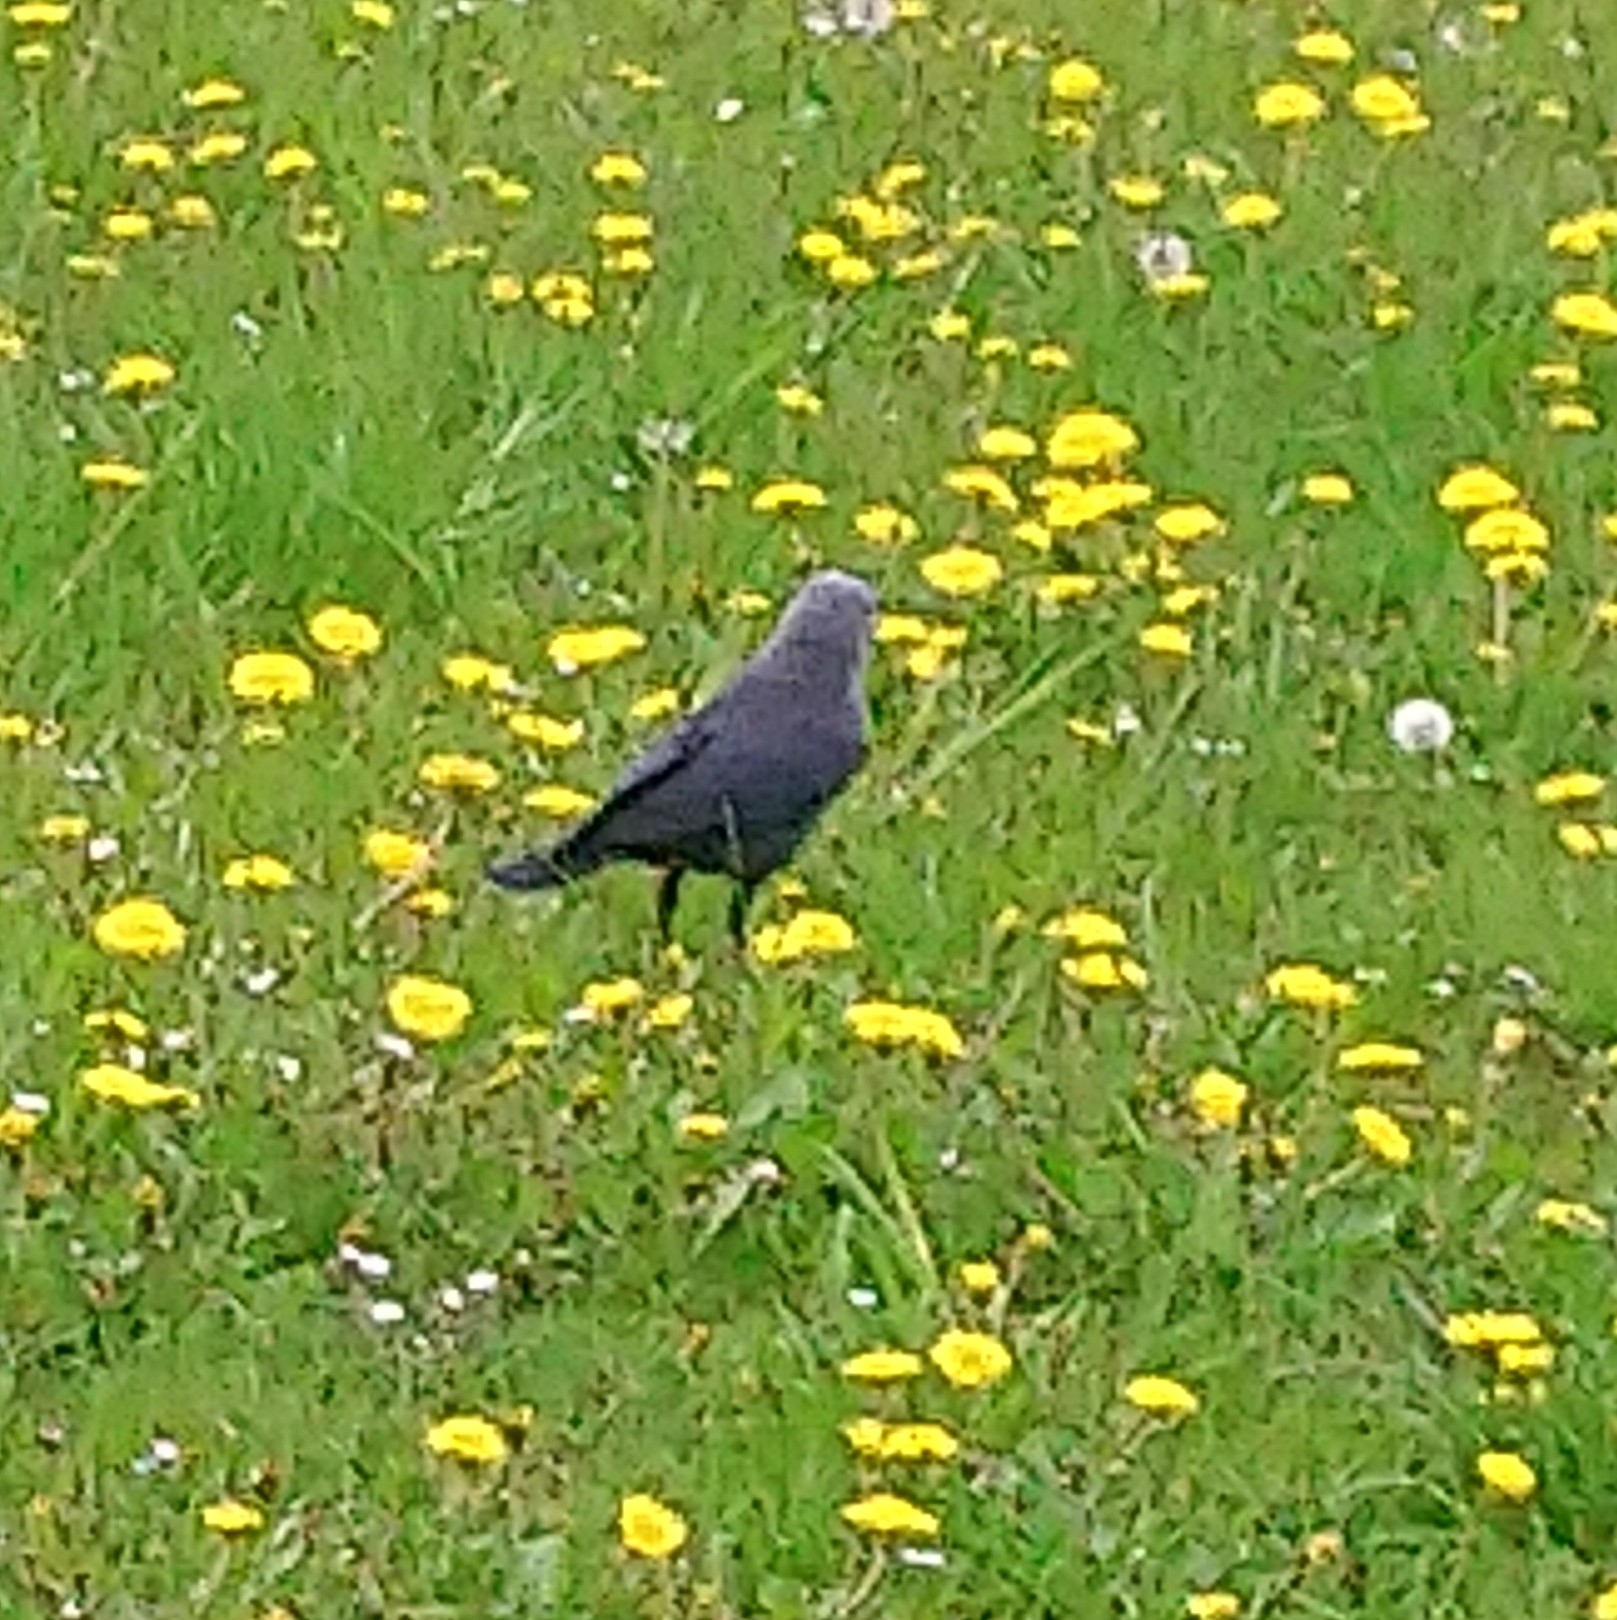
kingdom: Animalia
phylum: Chordata
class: Aves
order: Passeriformes
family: Corvidae
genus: Coloeus
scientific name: Coloeus monedula
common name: Western jackdaw
